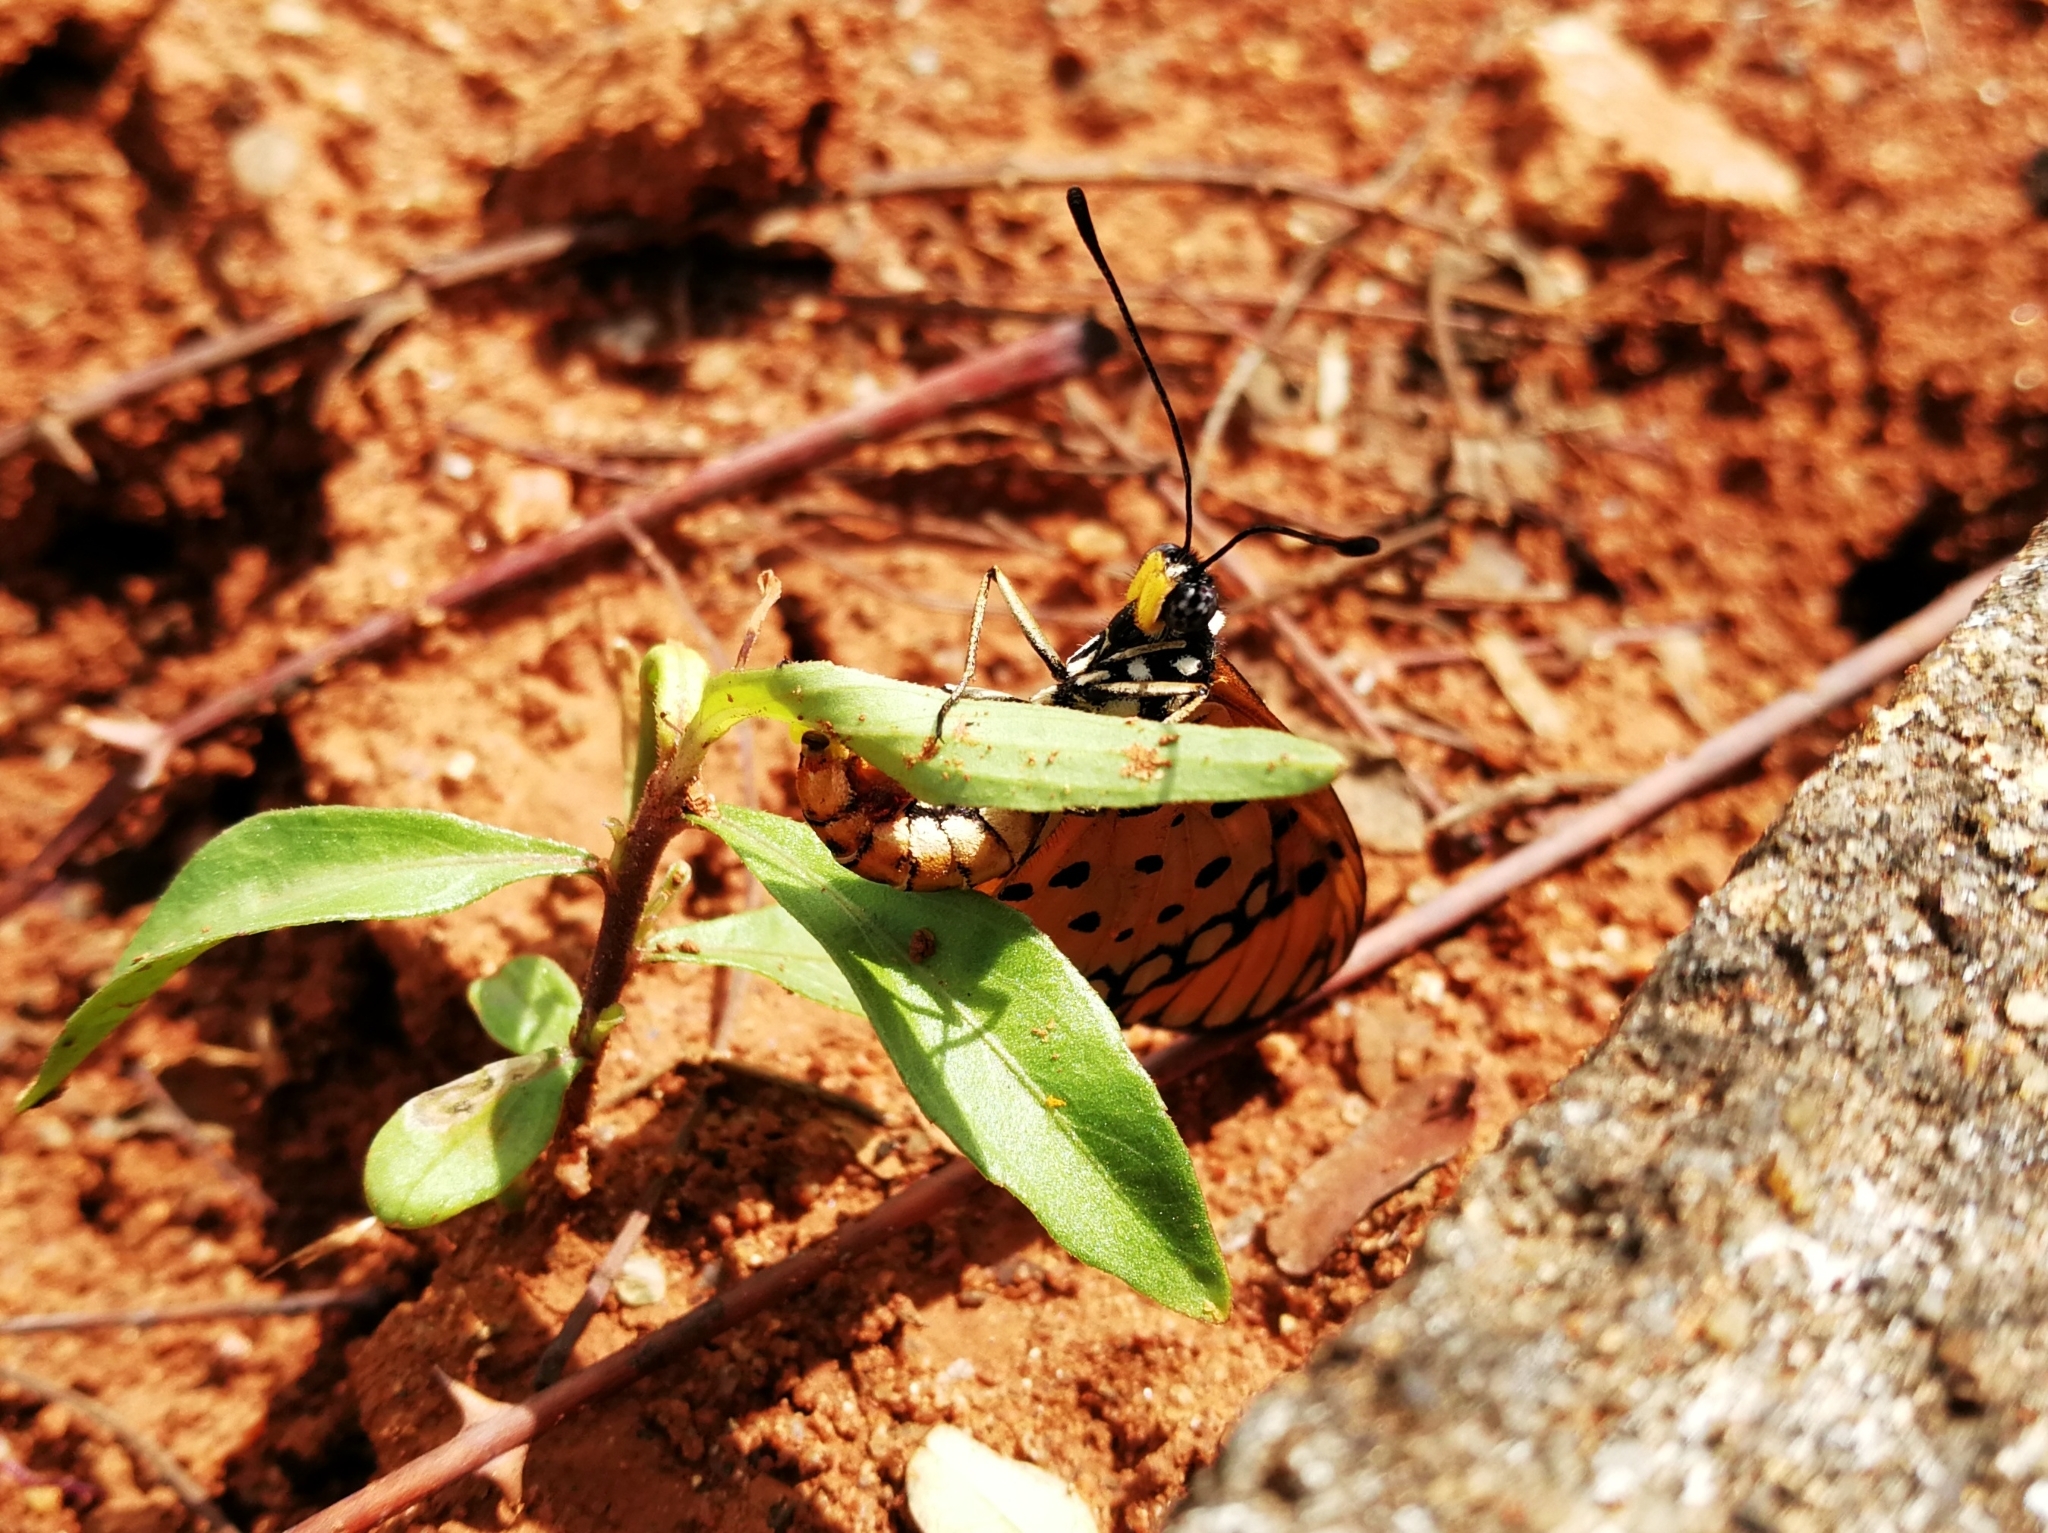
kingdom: Animalia
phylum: Arthropoda
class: Insecta
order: Lepidoptera
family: Nymphalidae
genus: Acraea
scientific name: Acraea terpsicore
